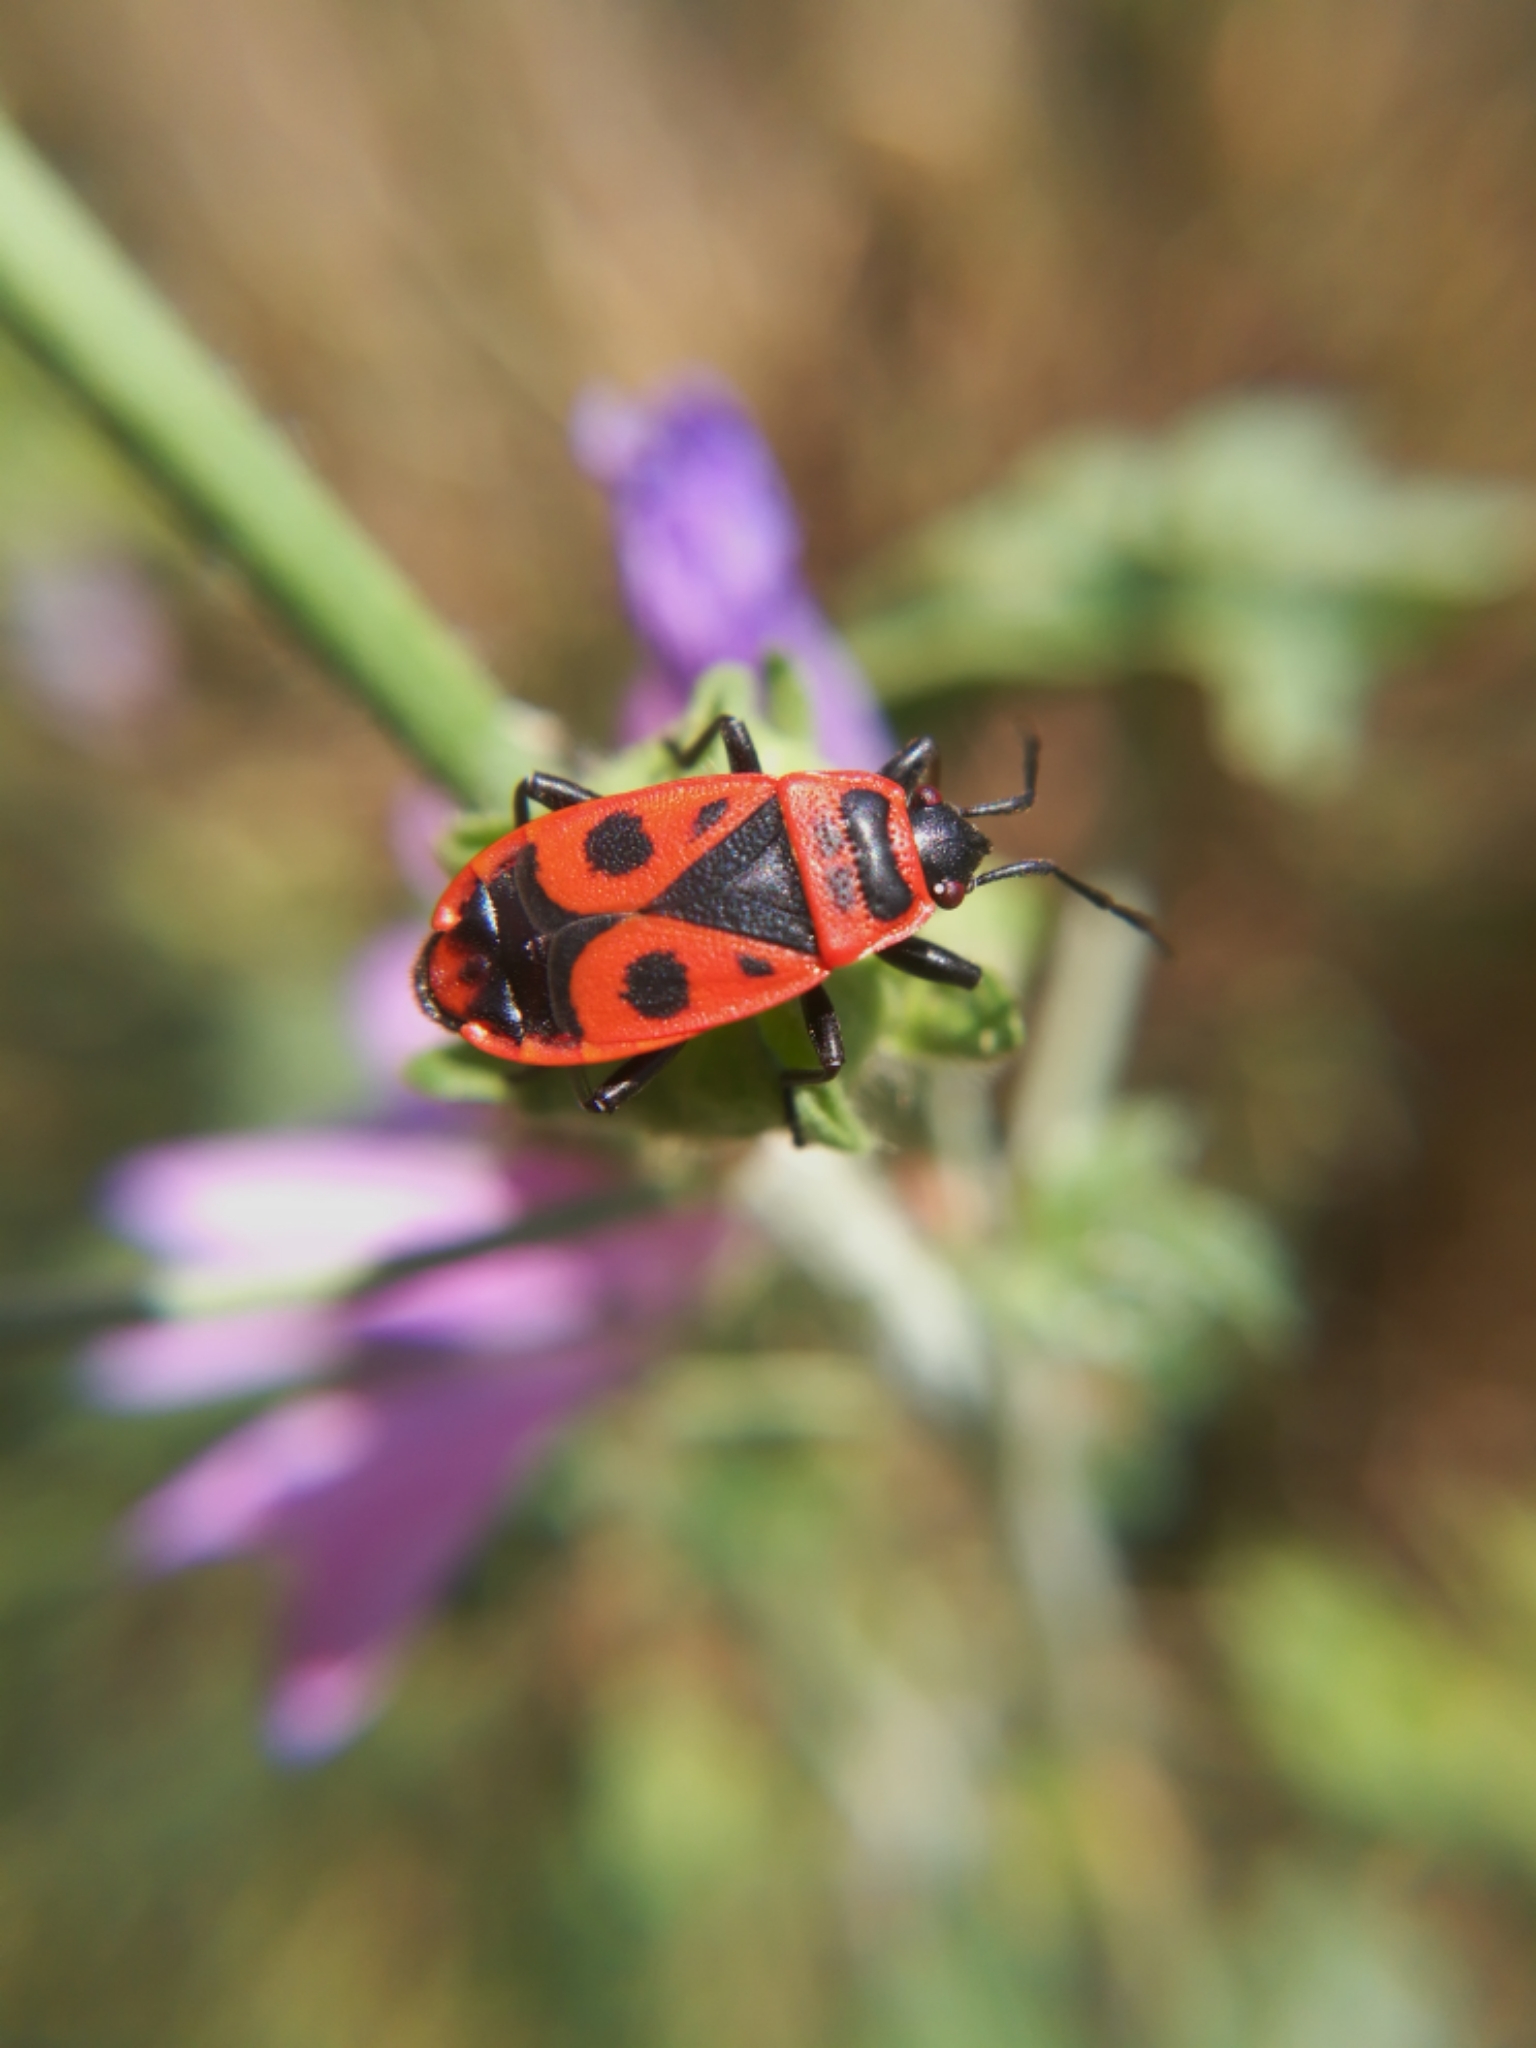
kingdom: Animalia
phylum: Arthropoda
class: Insecta
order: Hemiptera
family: Pyrrhocoridae
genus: Pyrrhocoris
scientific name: Pyrrhocoris apterus
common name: Firebug
